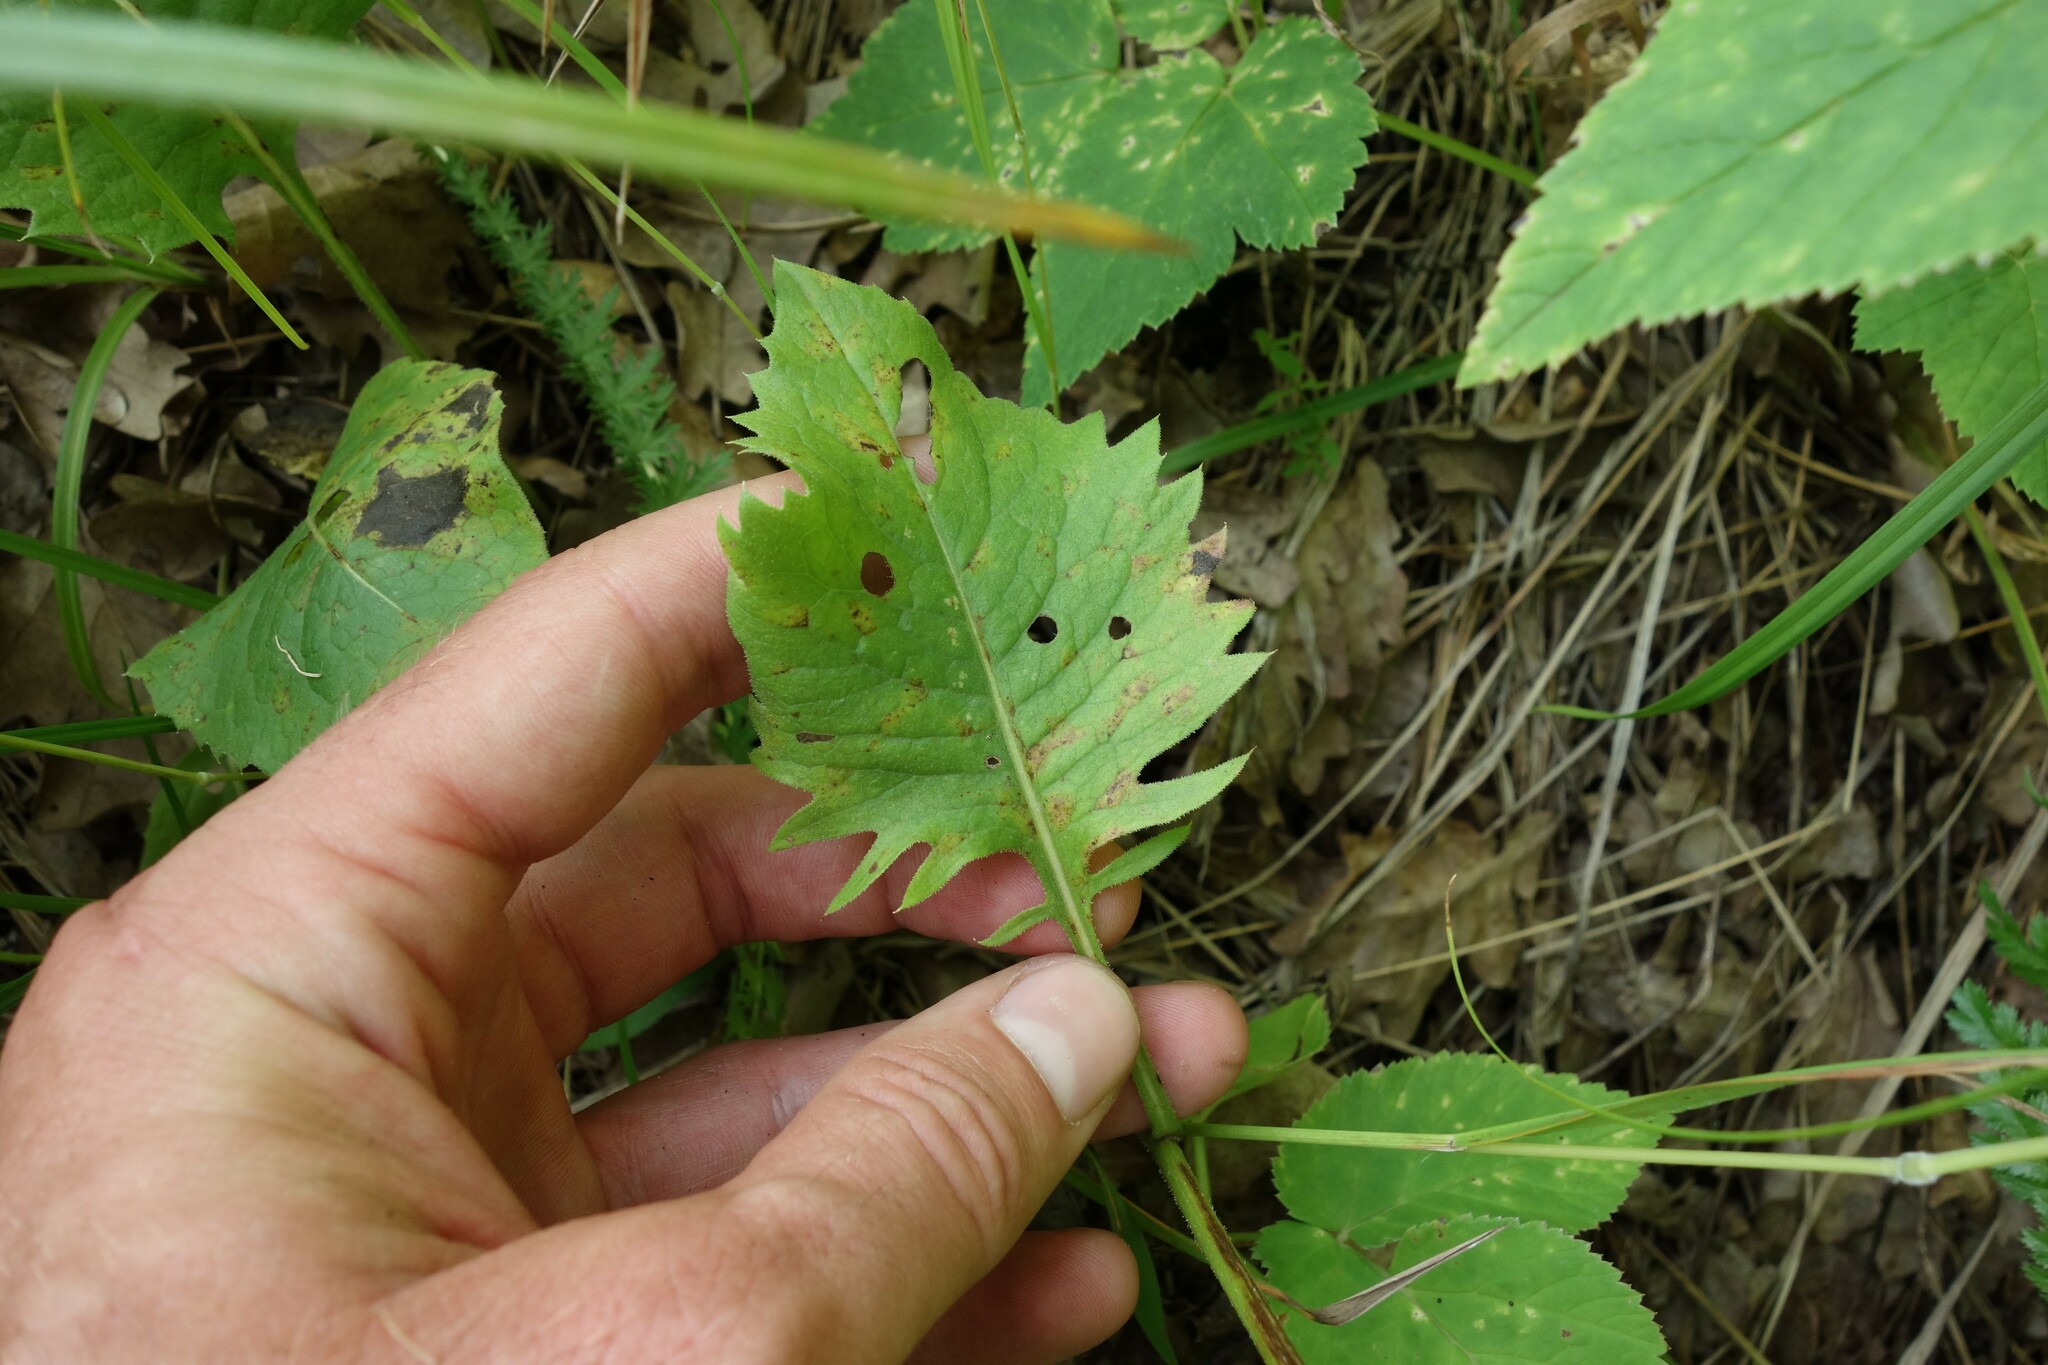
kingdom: Plantae
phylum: Tracheophyta
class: Magnoliopsida
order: Asterales
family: Asteraceae
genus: Klasea
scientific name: Klasea lycopifolia
